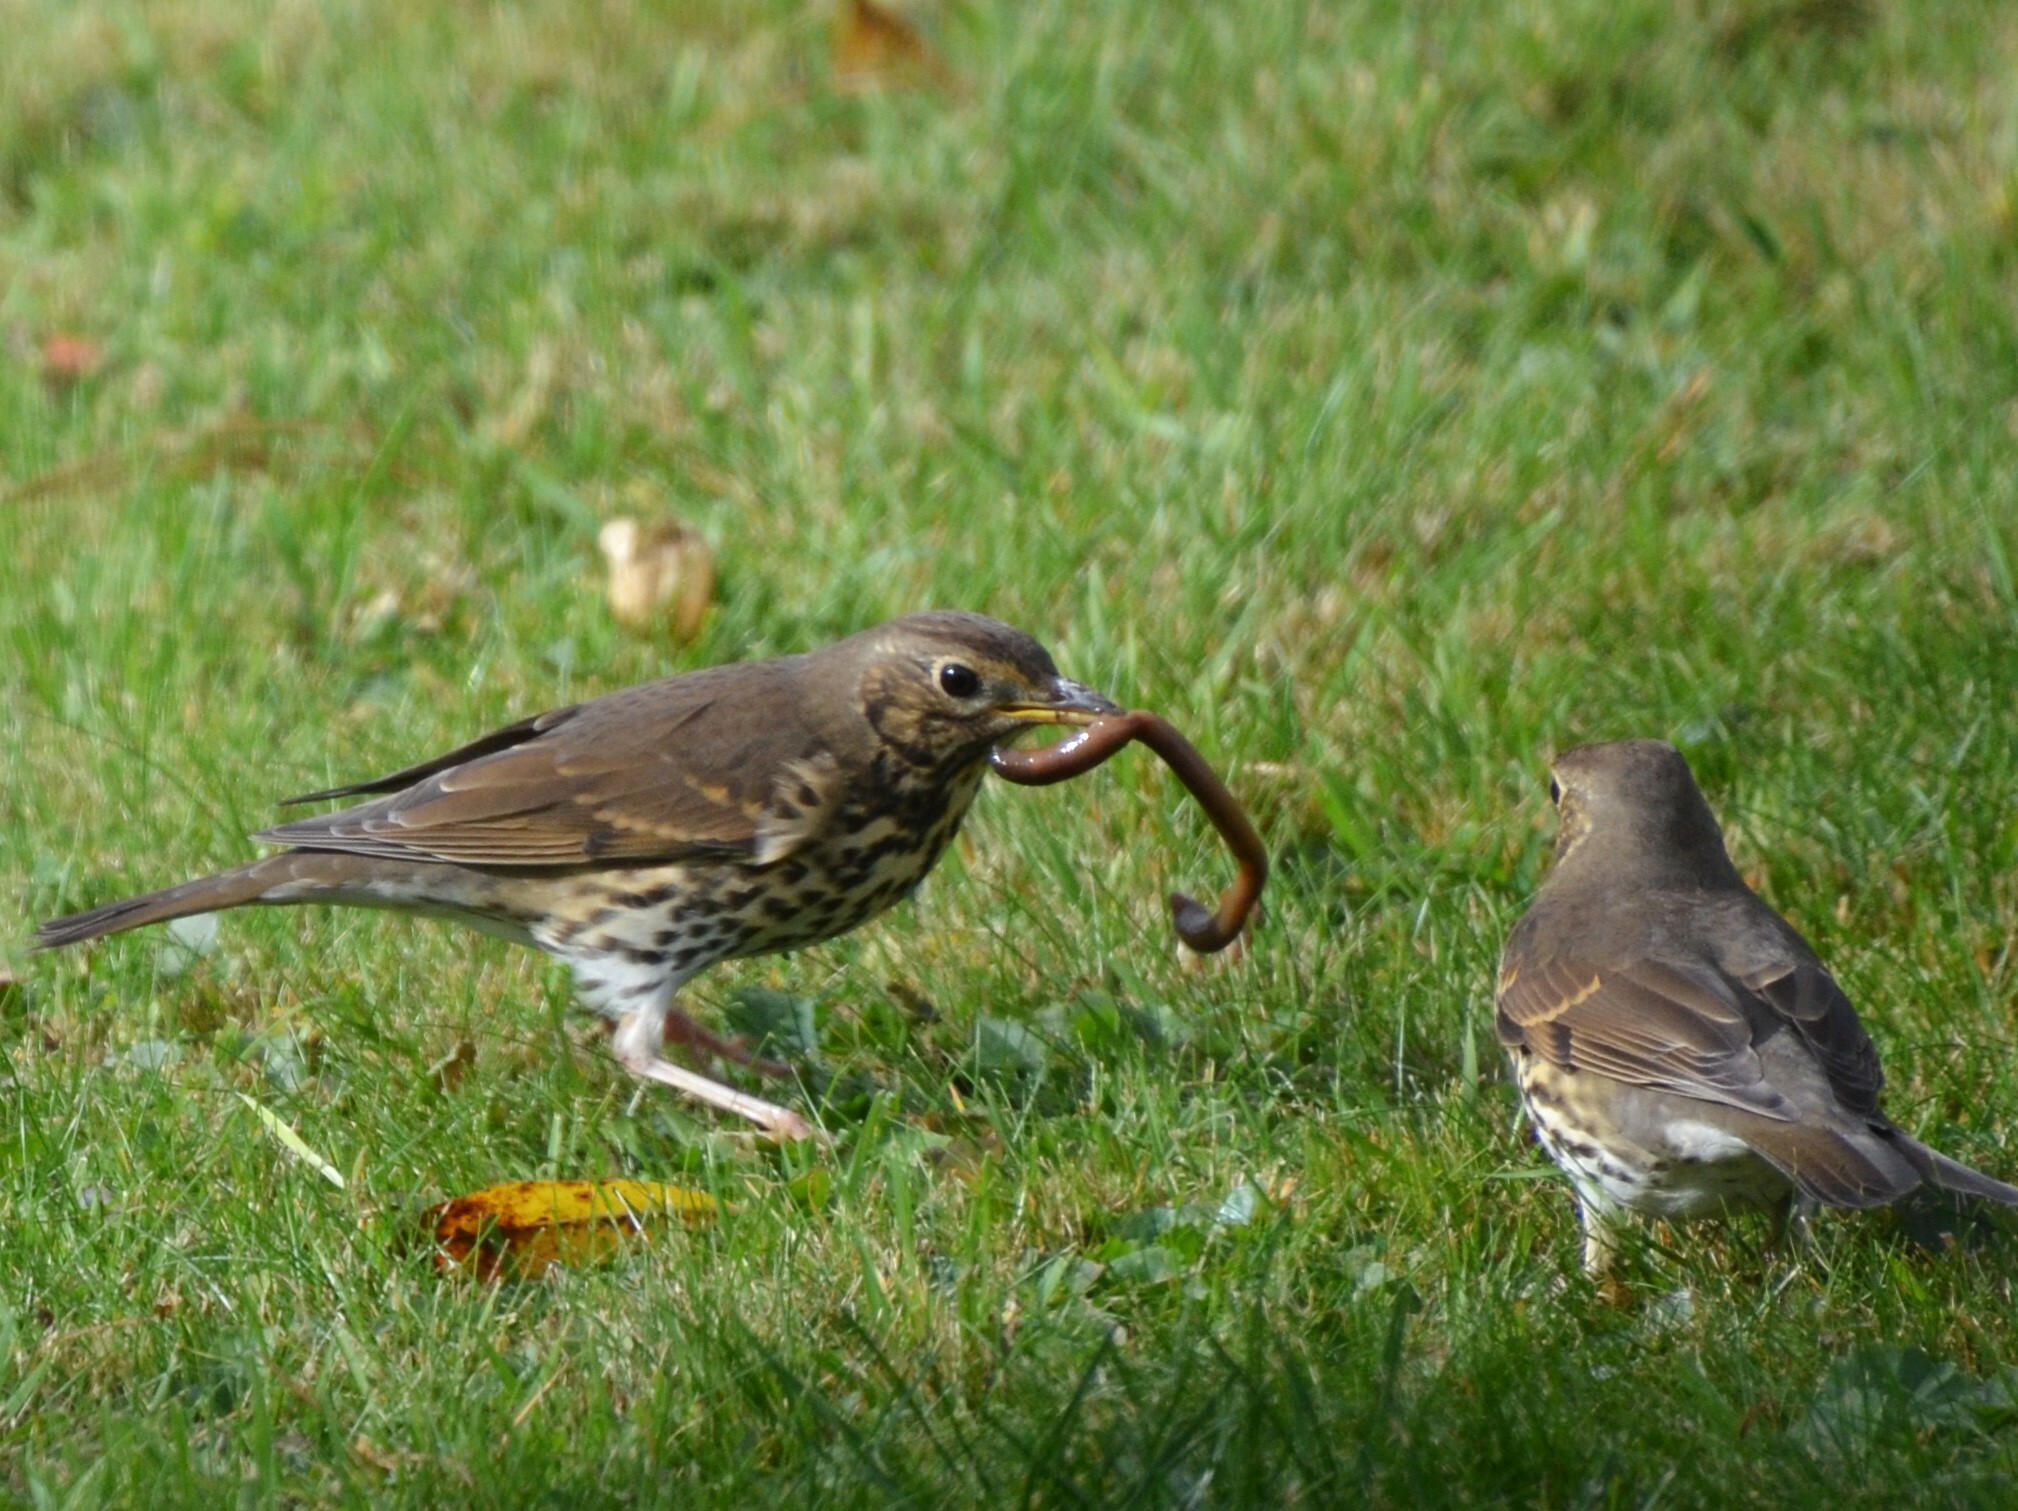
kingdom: Animalia
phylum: Chordata
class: Aves
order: Passeriformes
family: Turdidae
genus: Turdus
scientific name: Turdus philomelos
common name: Song thrush
